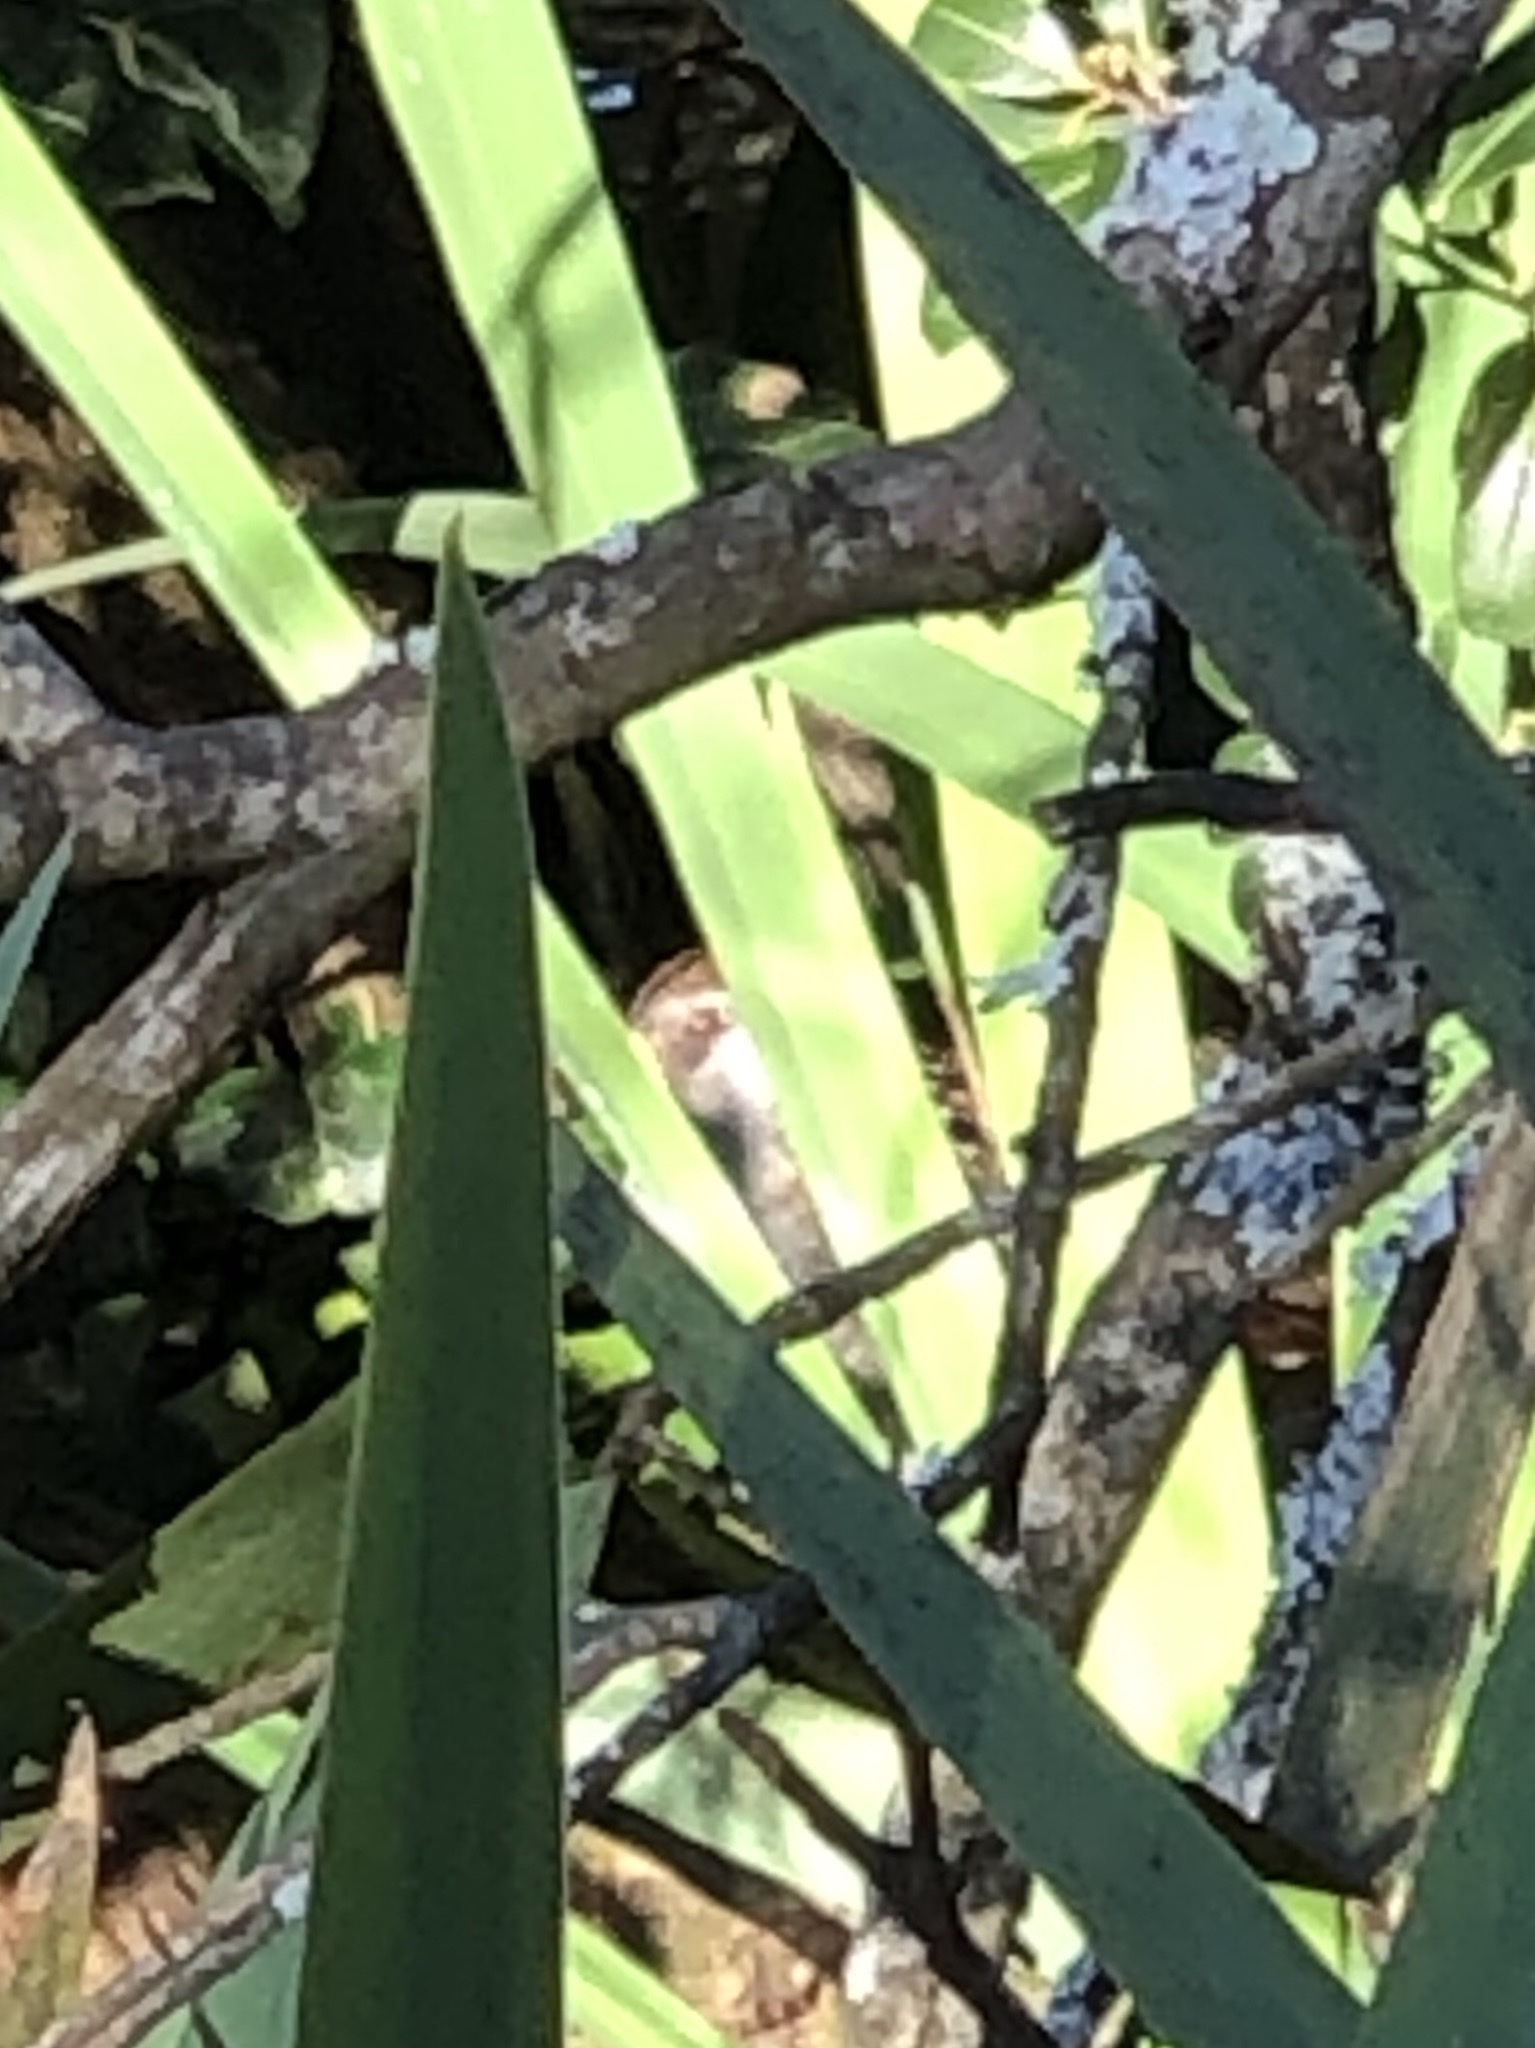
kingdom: Animalia
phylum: Chordata
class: Aves
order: Gruiformes
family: Rallidae
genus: Porzana
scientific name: Porzana carolina
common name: Sora
